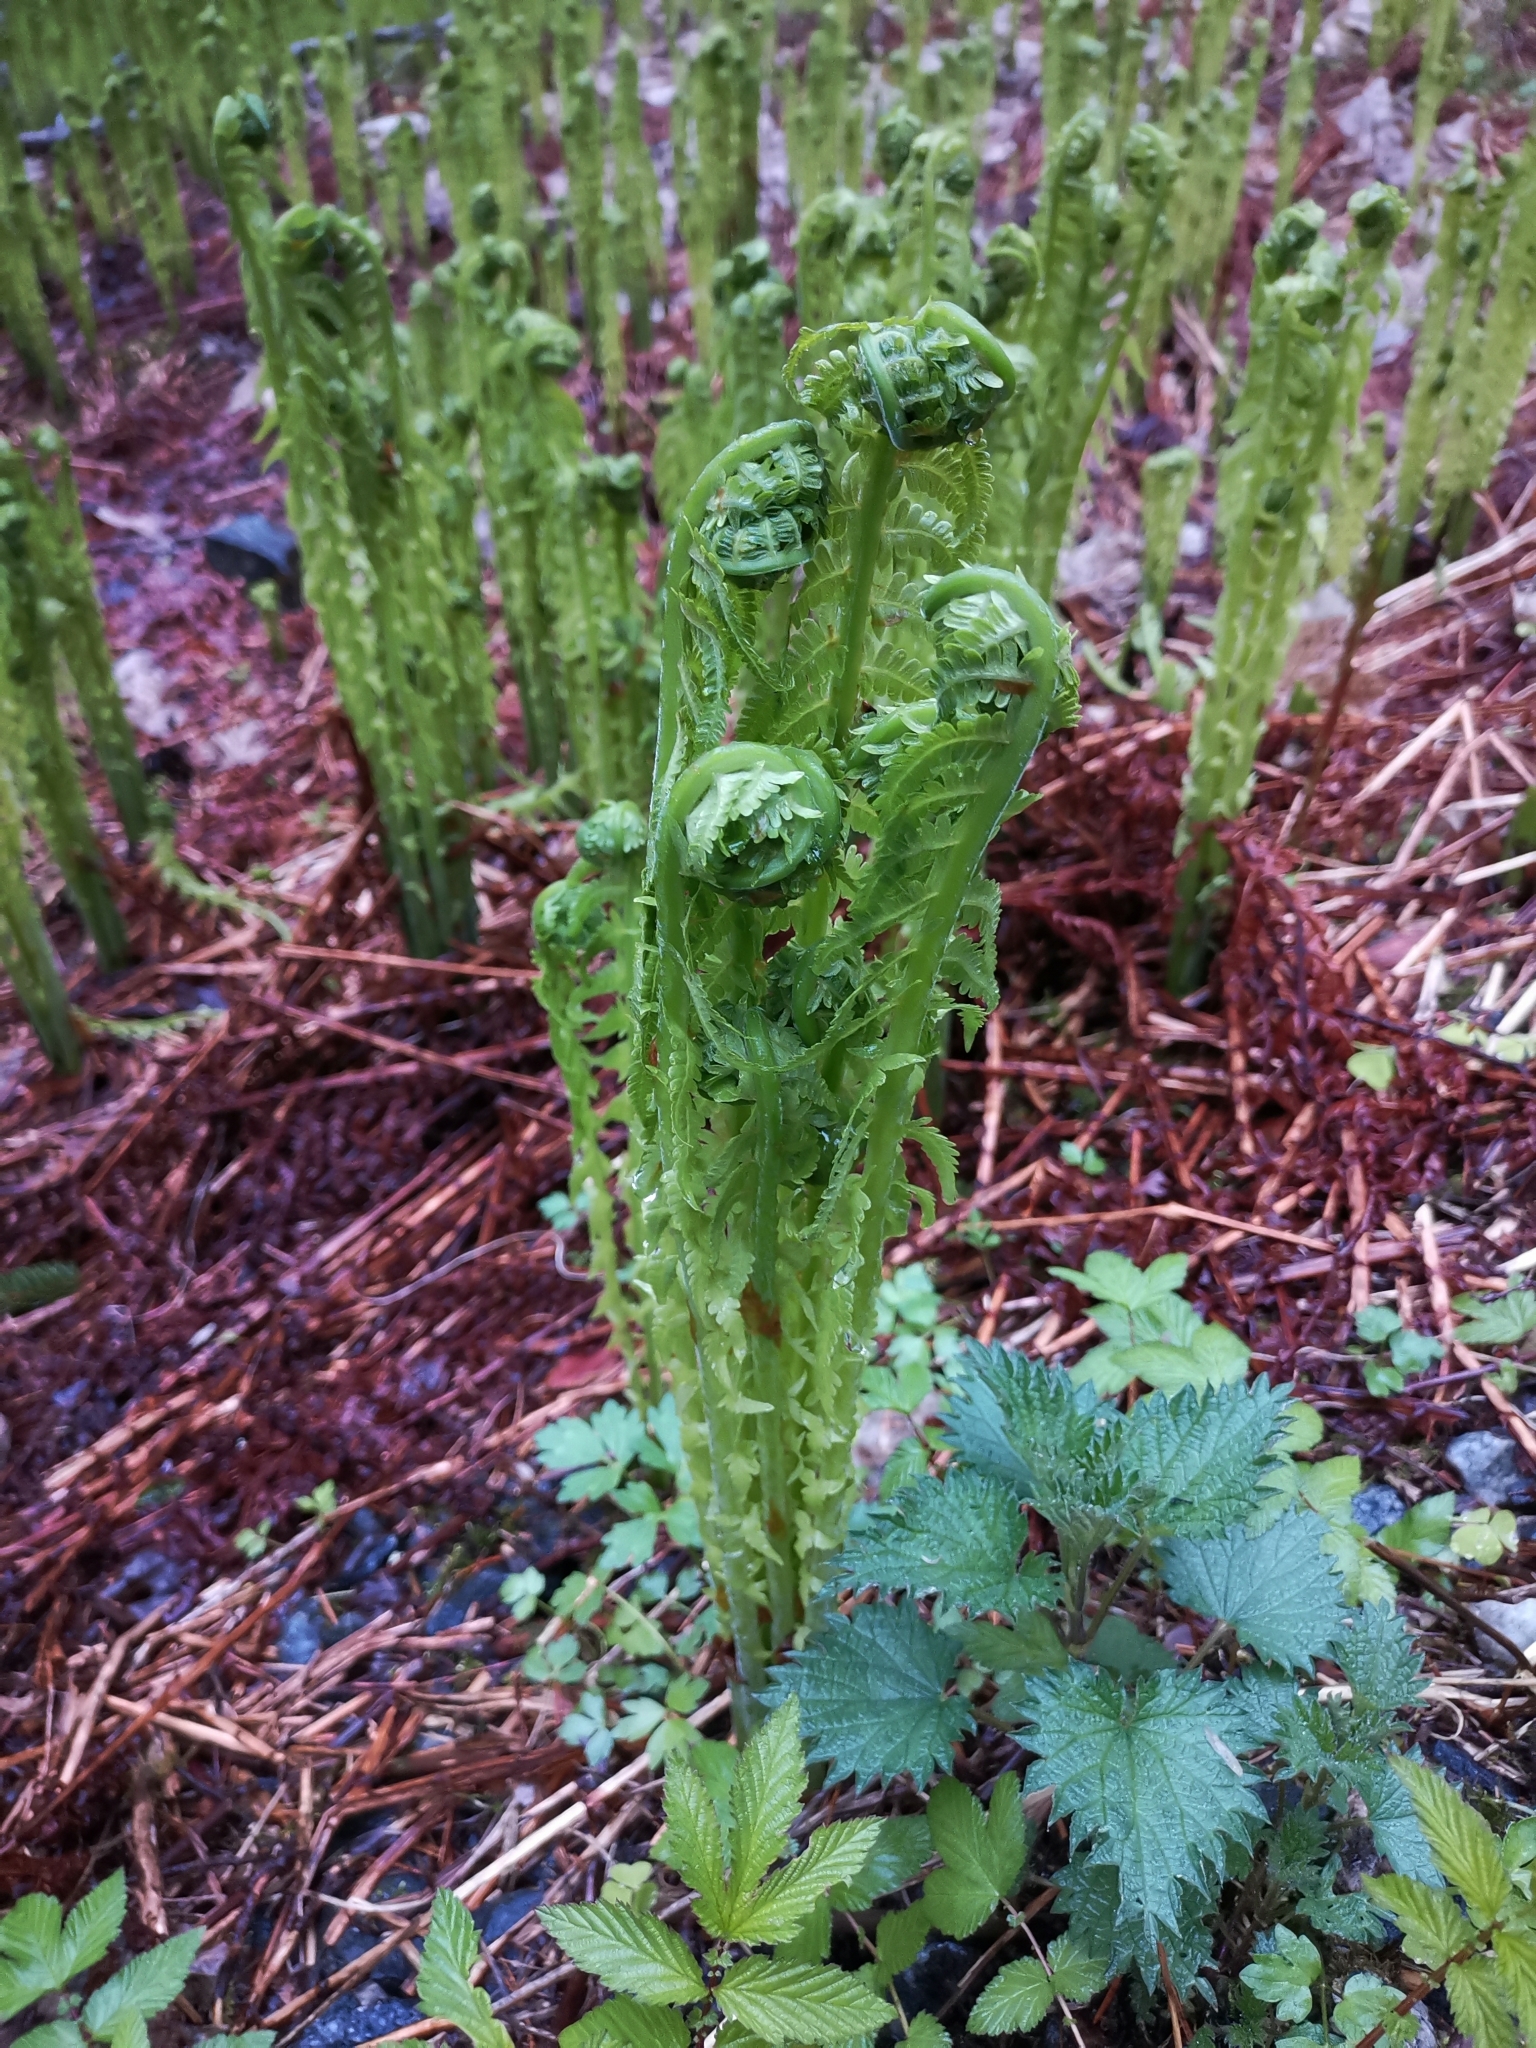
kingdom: Plantae
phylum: Tracheophyta
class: Polypodiopsida
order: Polypodiales
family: Onocleaceae
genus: Matteuccia
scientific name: Matteuccia struthiopteris
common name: Ostrich fern
